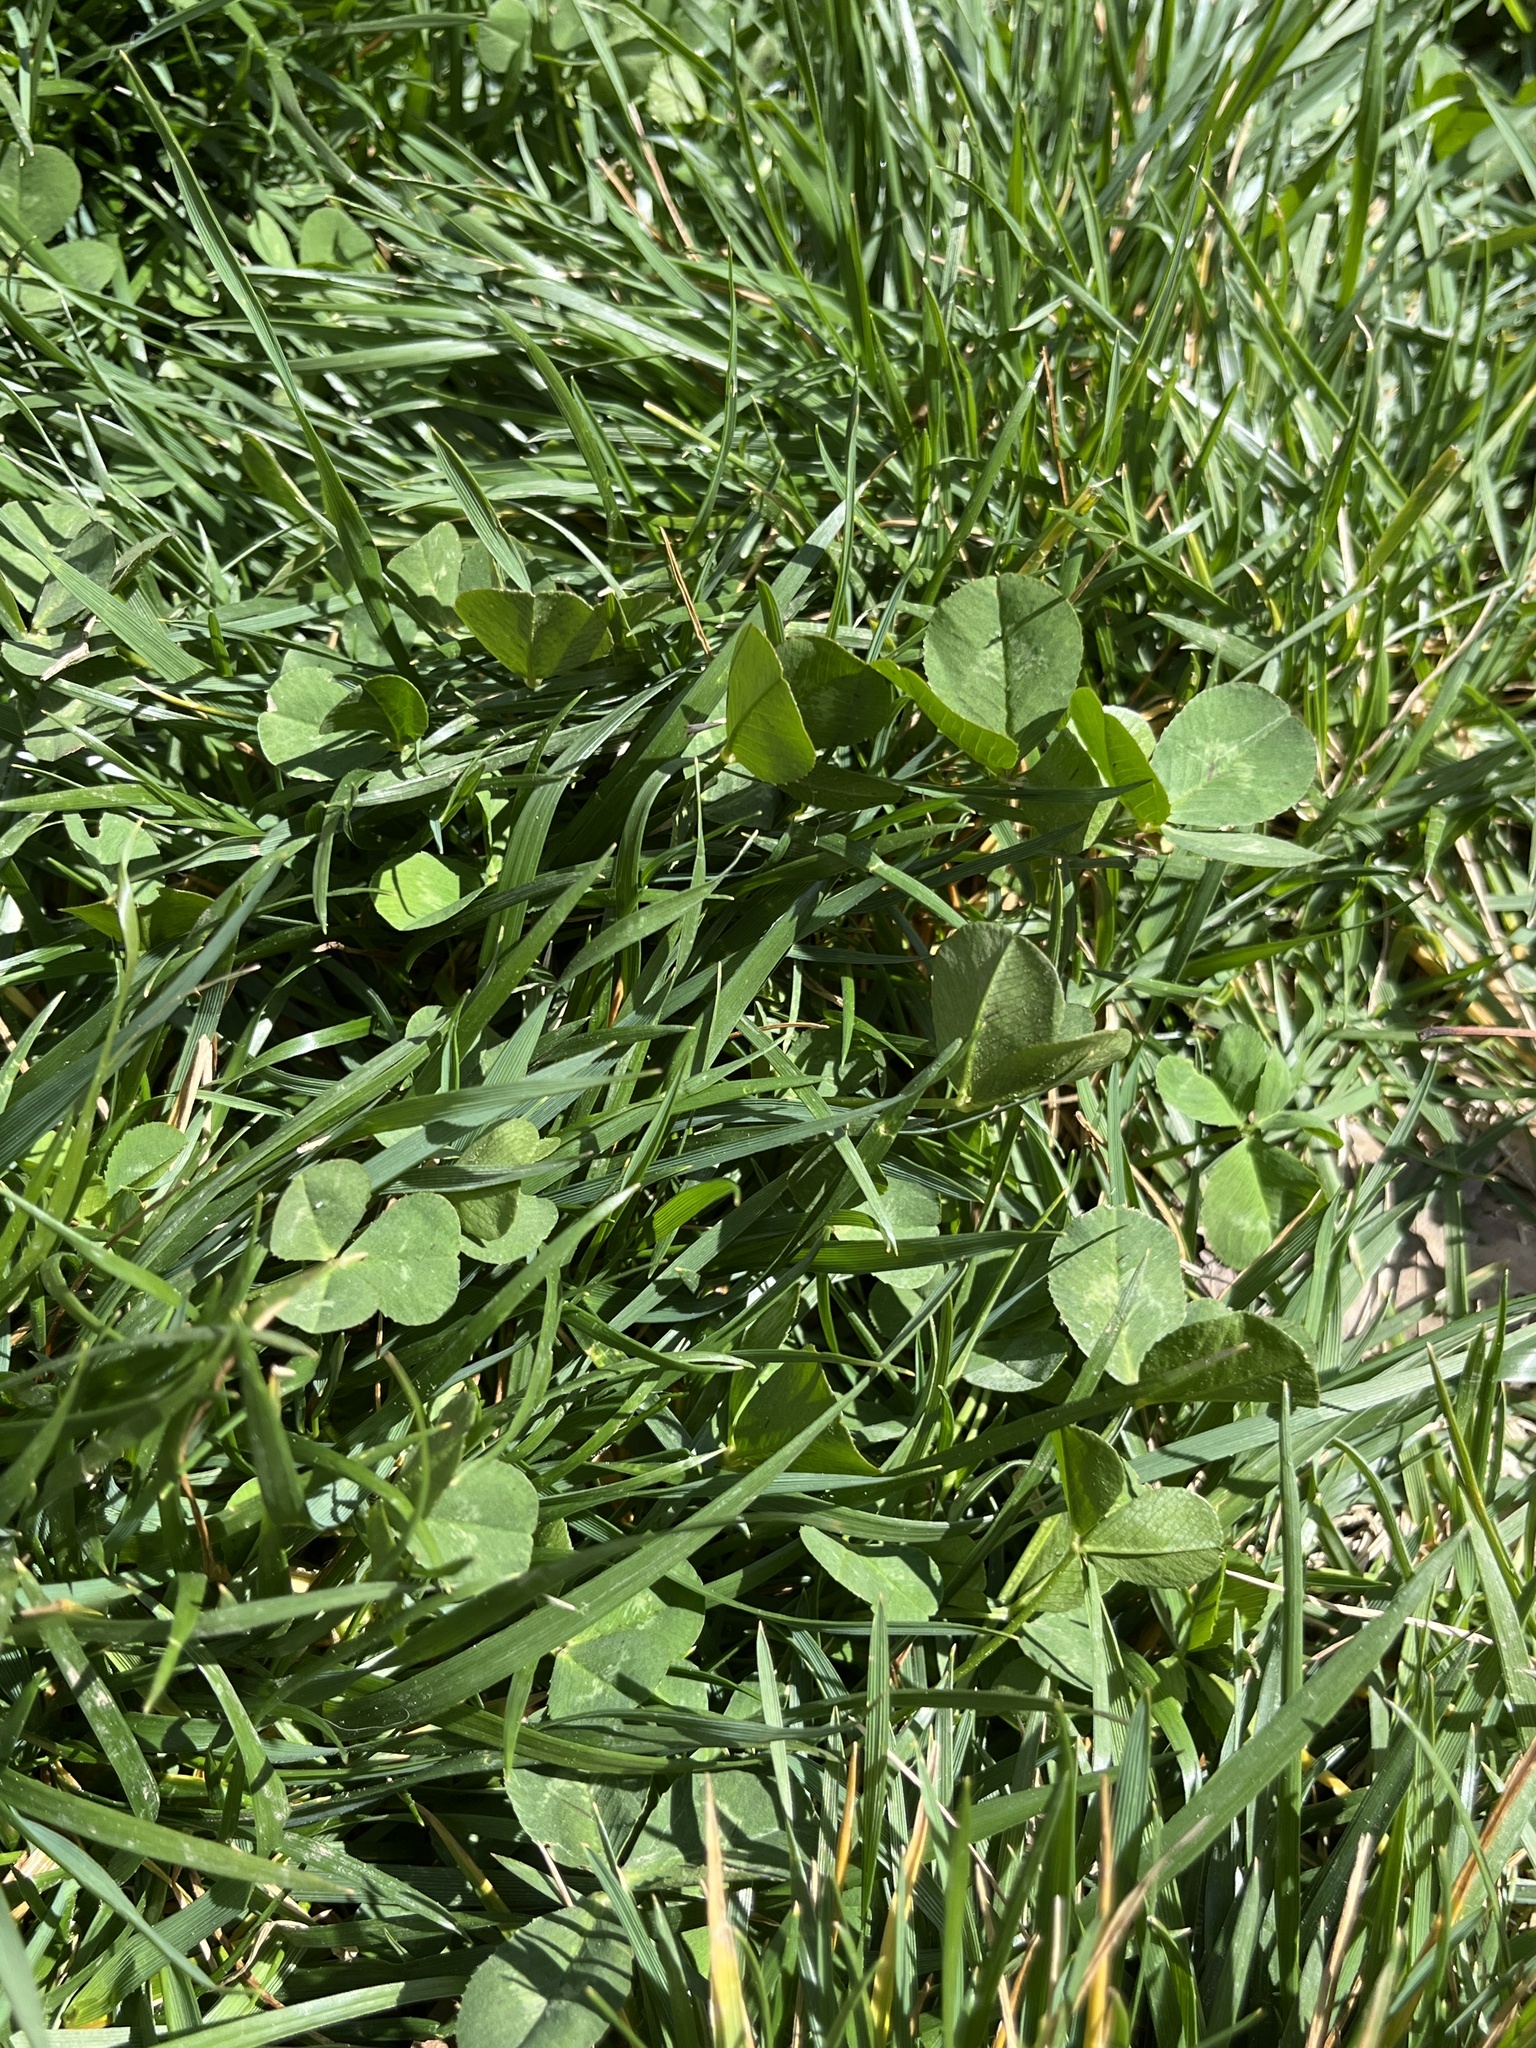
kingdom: Plantae
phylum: Tracheophyta
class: Magnoliopsida
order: Fabales
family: Fabaceae
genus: Trifolium
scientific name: Trifolium repens
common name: White clover
